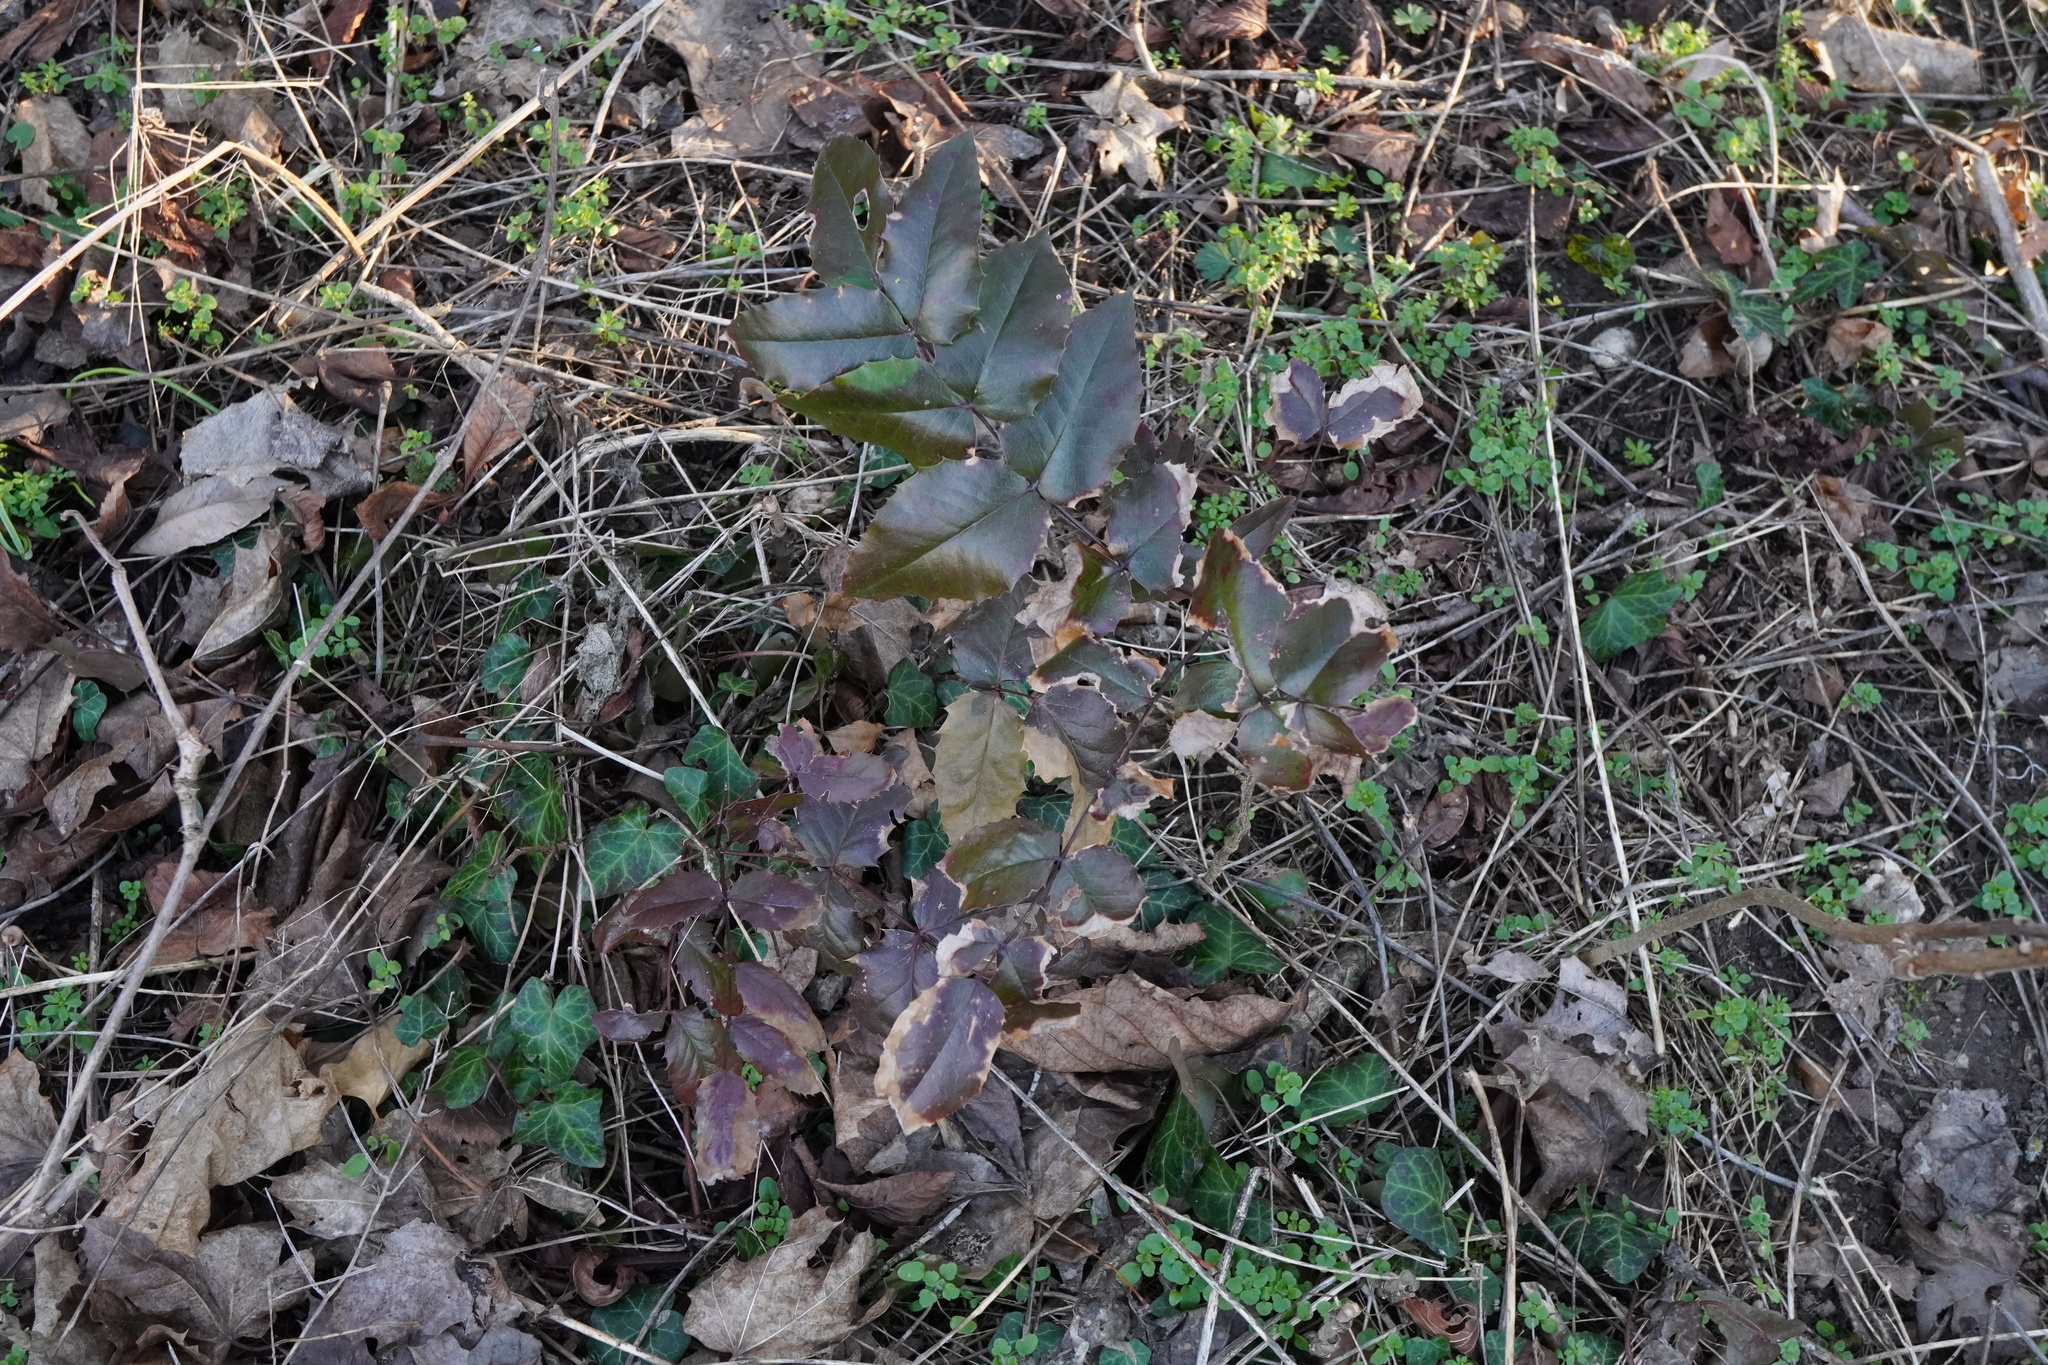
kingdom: Plantae
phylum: Tracheophyta
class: Magnoliopsida
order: Ranunculales
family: Berberidaceae
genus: Mahonia
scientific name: Mahonia aquifolium
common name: Oregon-grape
